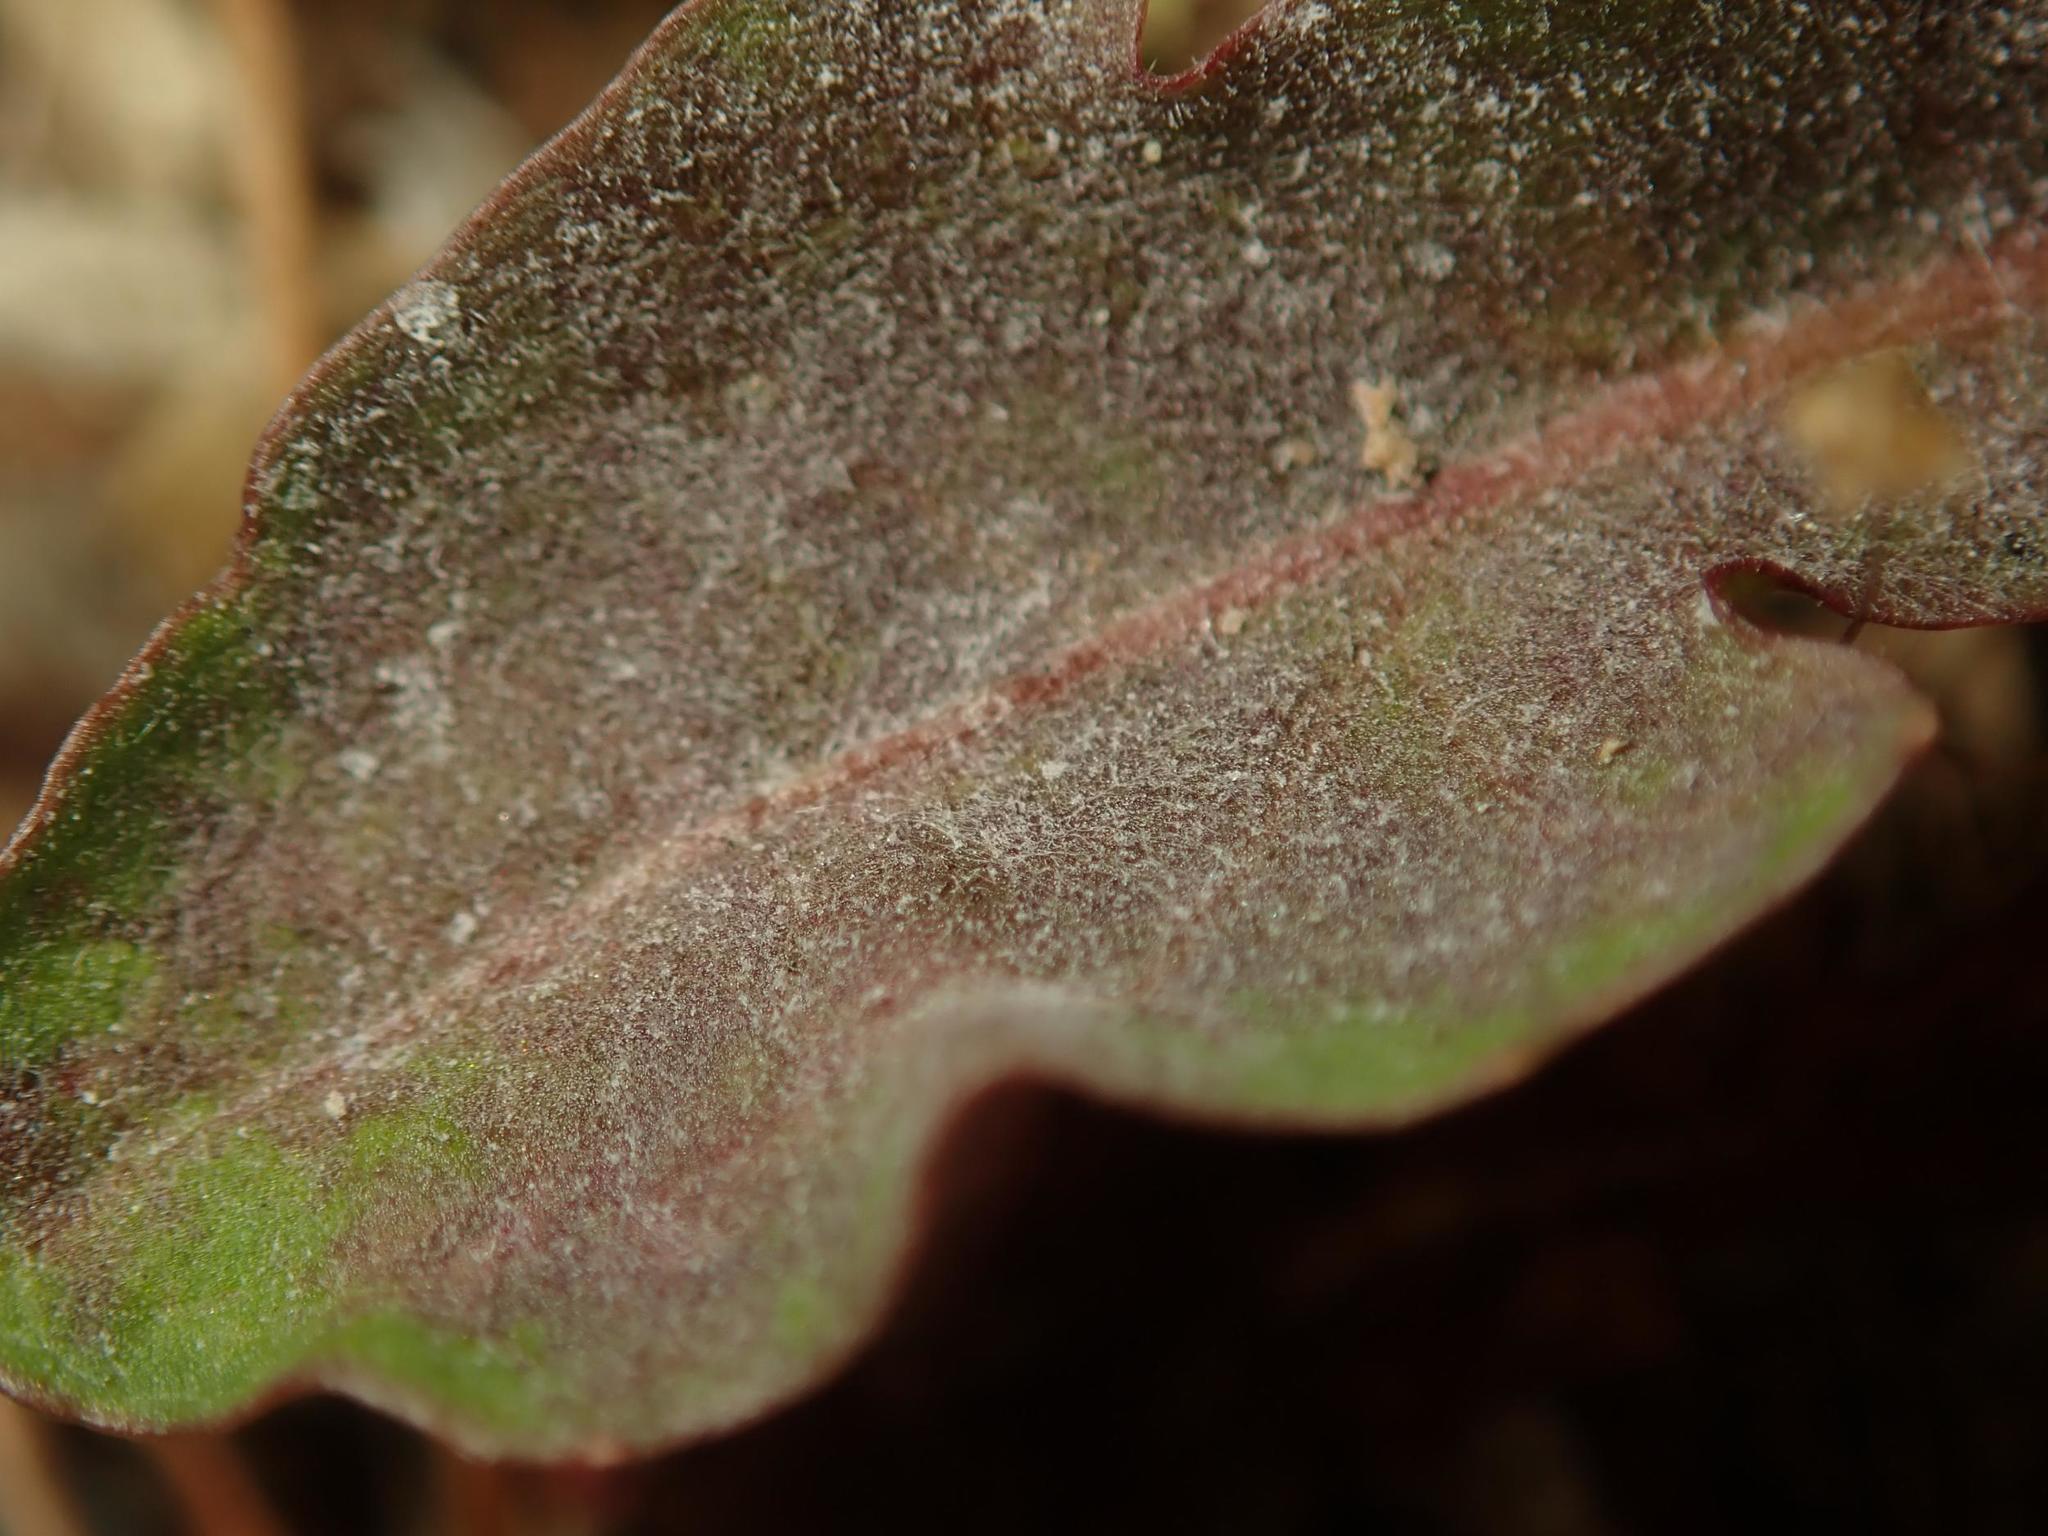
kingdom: Fungi
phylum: Ascomycota
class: Leotiomycetes
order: Helotiales
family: Erysiphaceae
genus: Podosphaera
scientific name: Podosphaera erigerontis-canadensis
